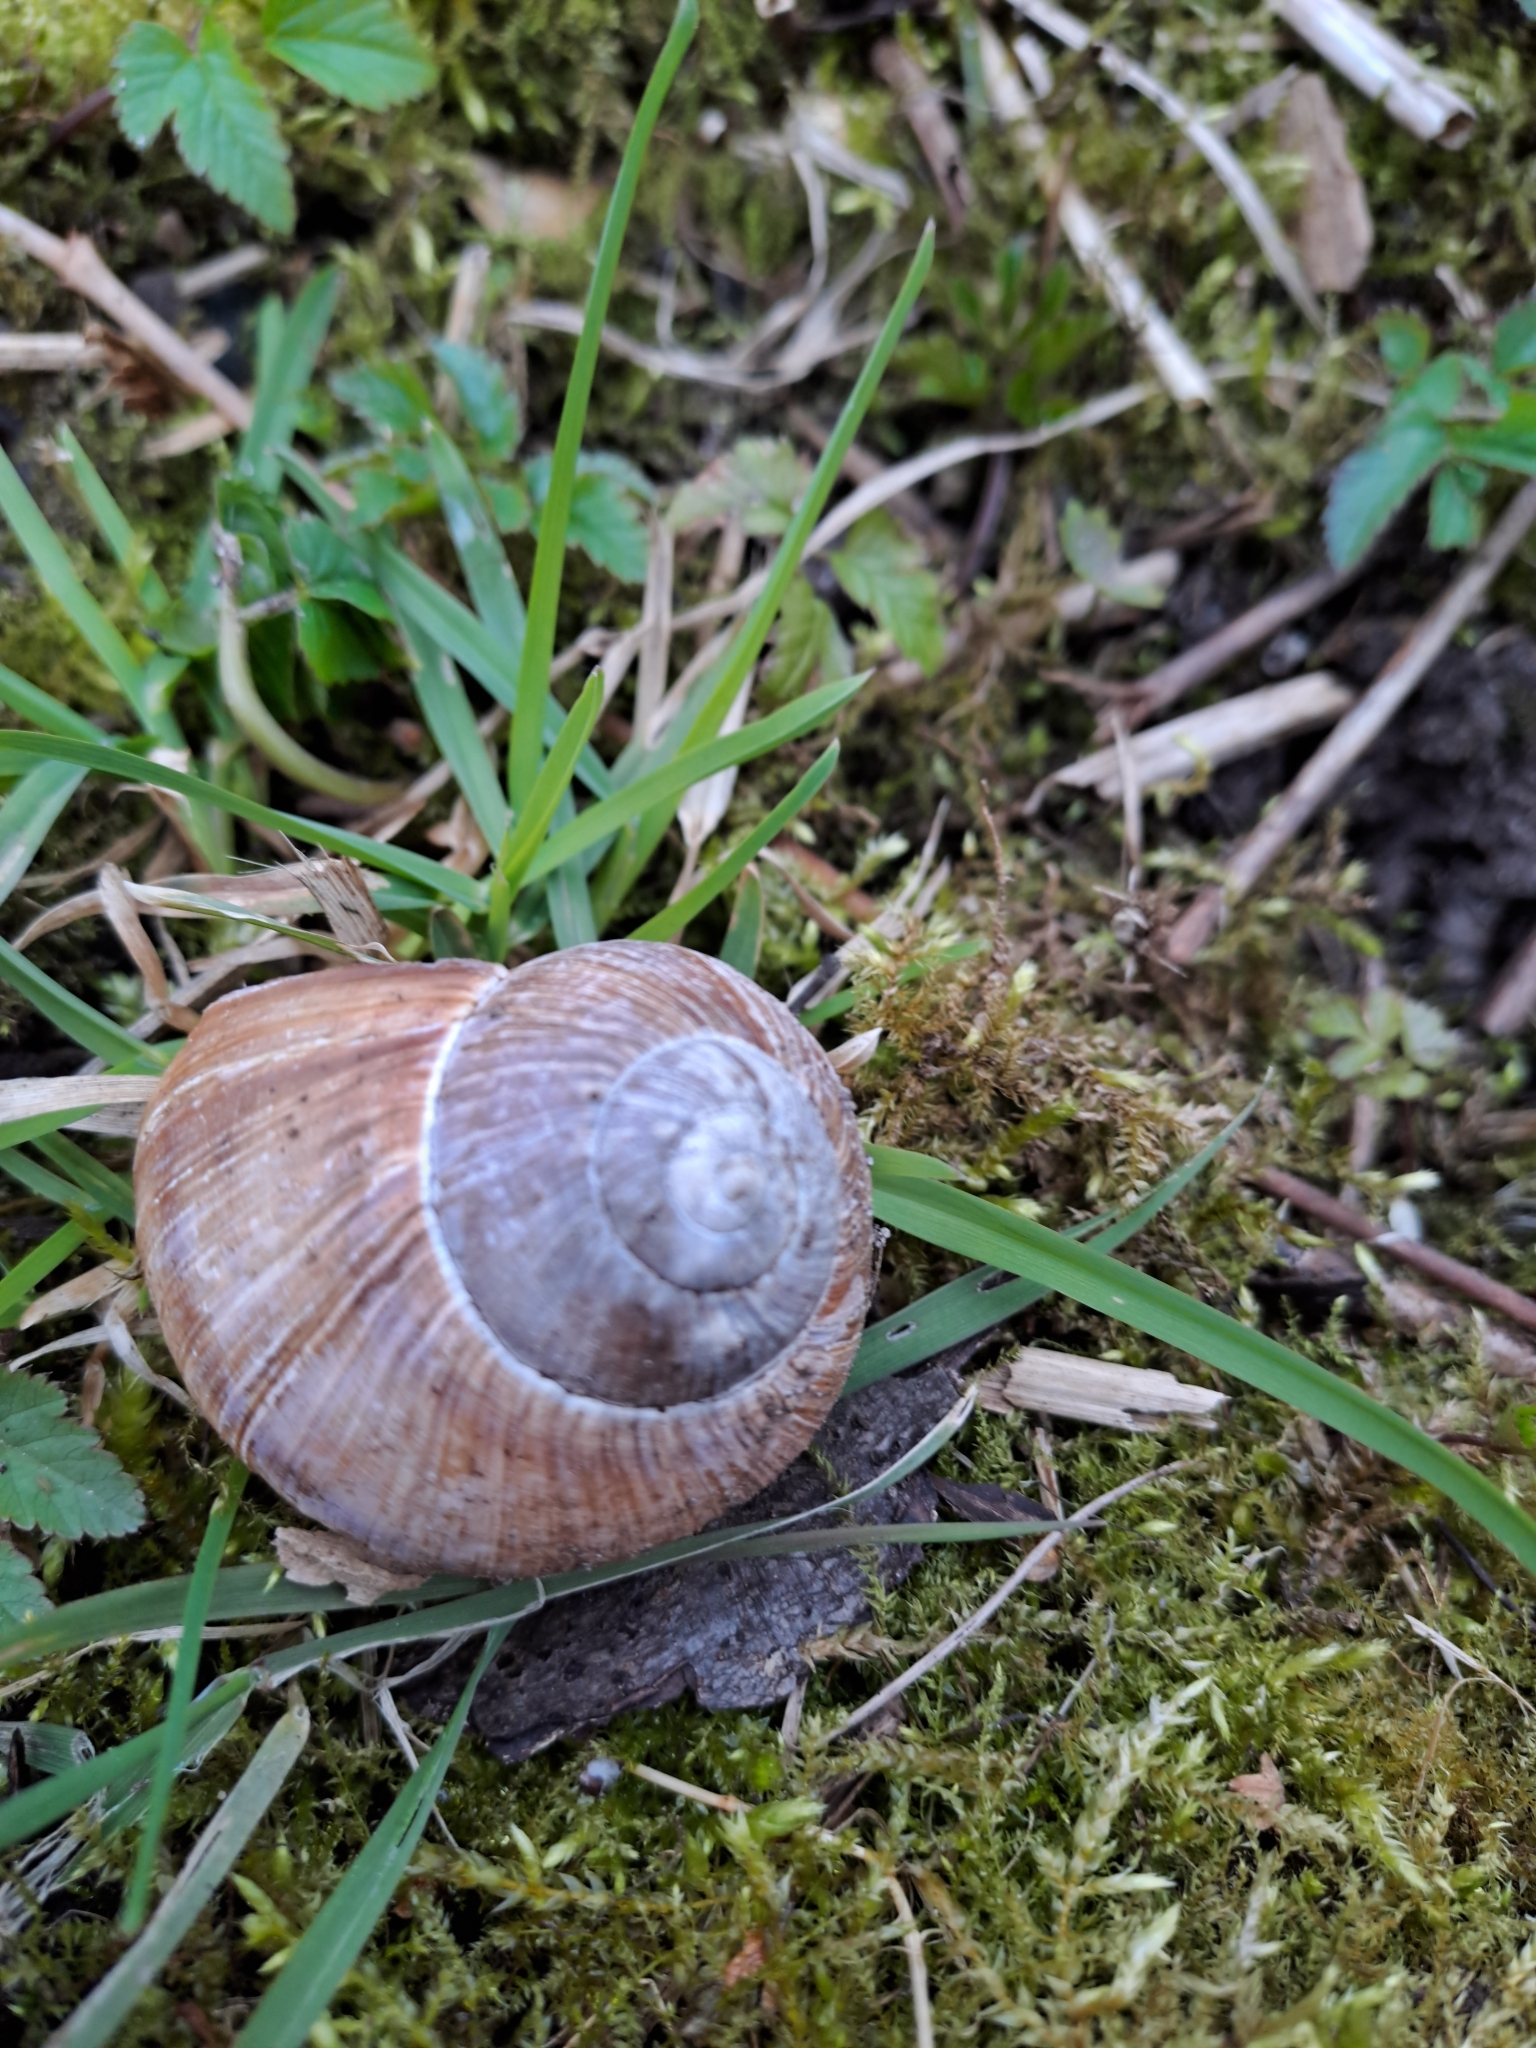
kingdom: Animalia
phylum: Mollusca
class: Gastropoda
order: Stylommatophora
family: Helicidae
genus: Helix
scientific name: Helix pomatia
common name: Roman snail
